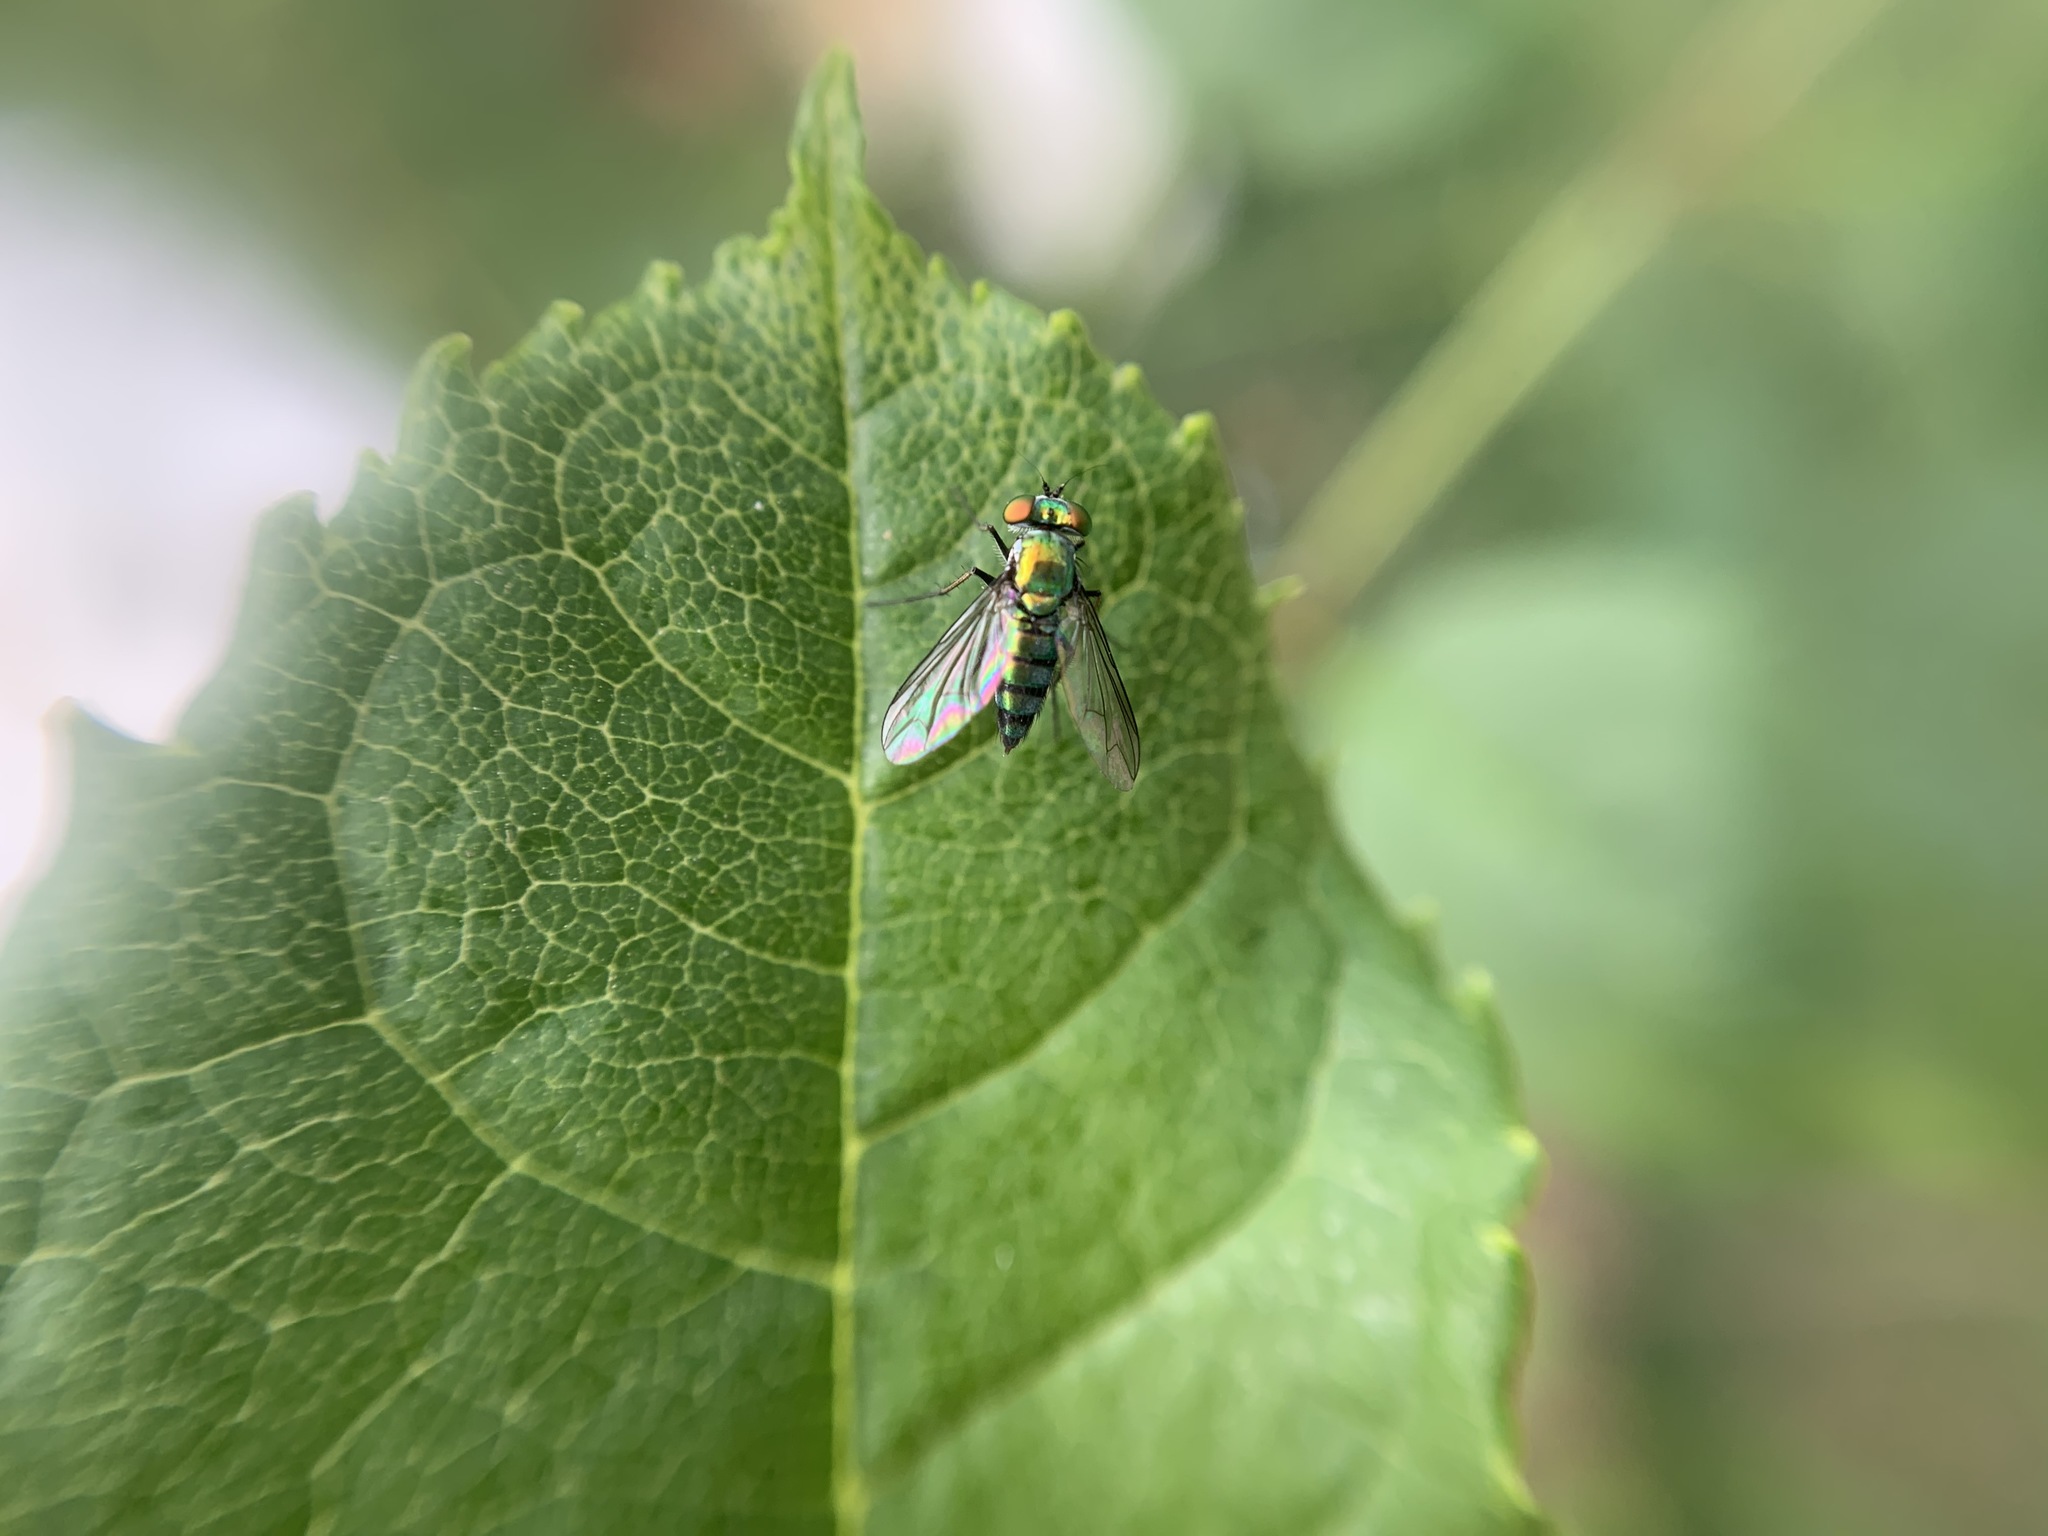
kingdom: Animalia
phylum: Arthropoda
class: Insecta
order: Diptera
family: Dolichopodidae
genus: Condylostylus
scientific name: Condylostylus longicornis
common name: Long-legged fly
